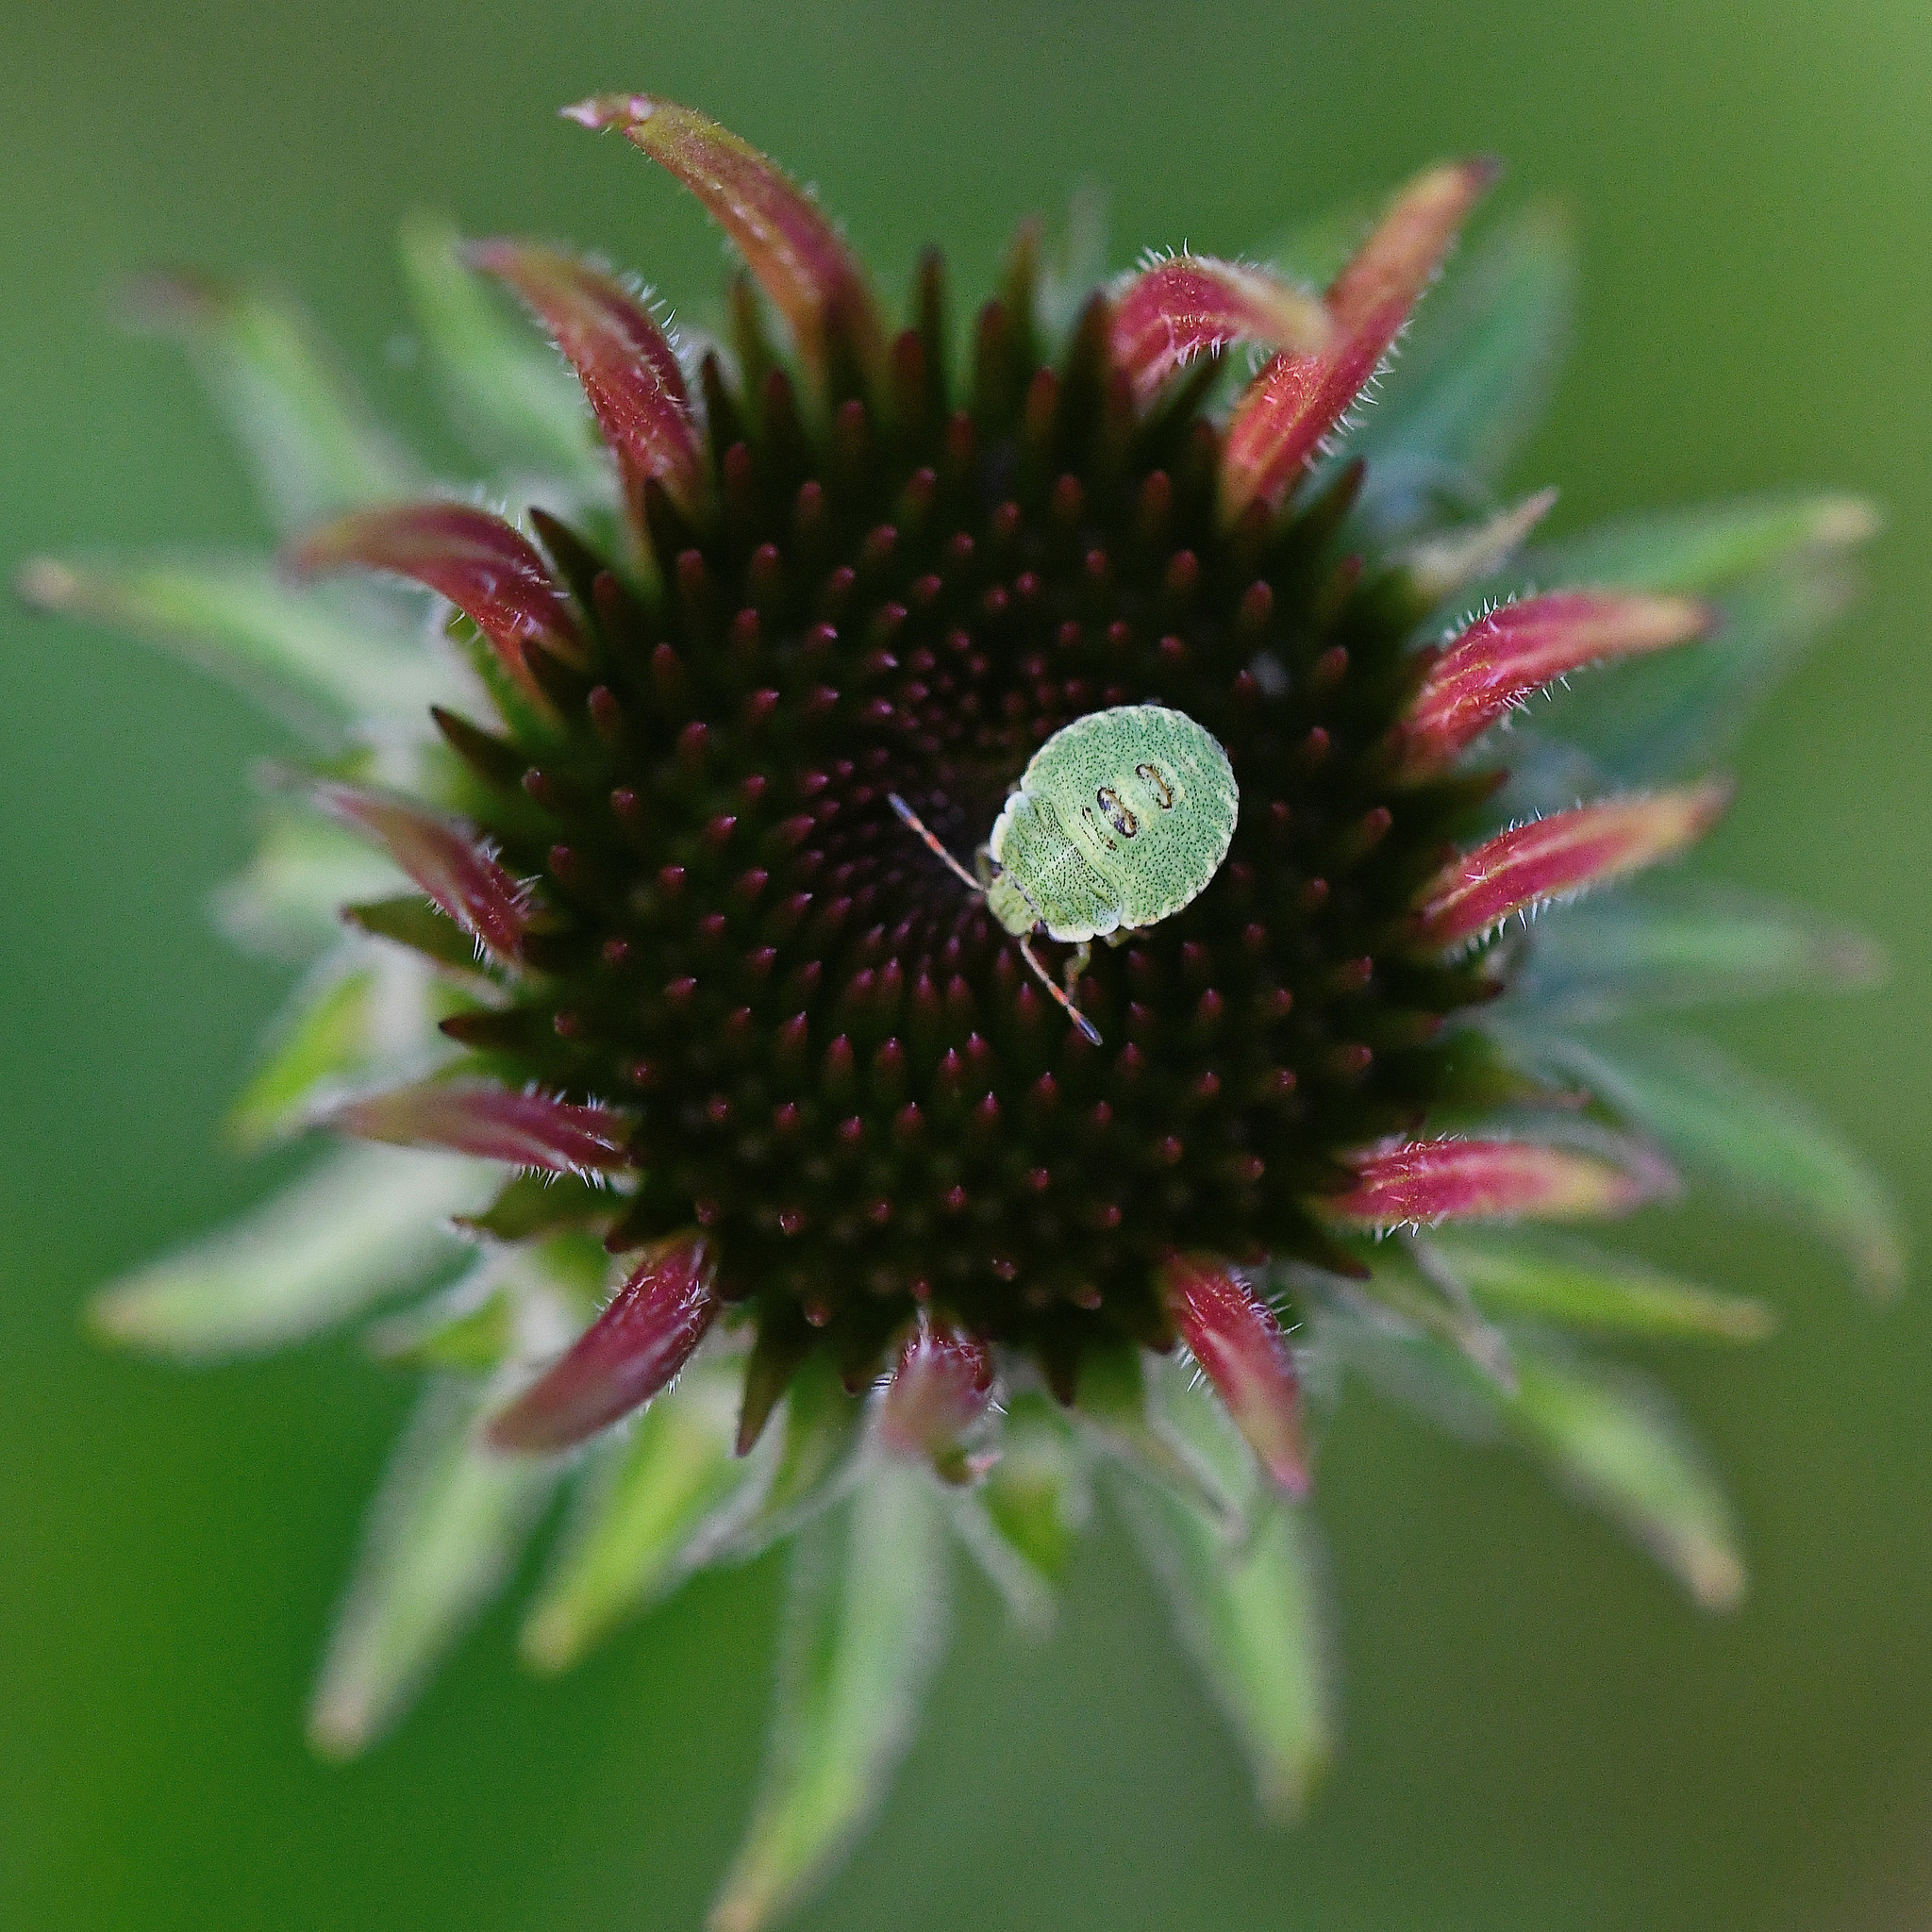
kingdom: Animalia
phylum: Arthropoda
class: Insecta
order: Hemiptera
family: Pentatomidae
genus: Palomena
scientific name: Palomena prasina
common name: Green shieldbug
